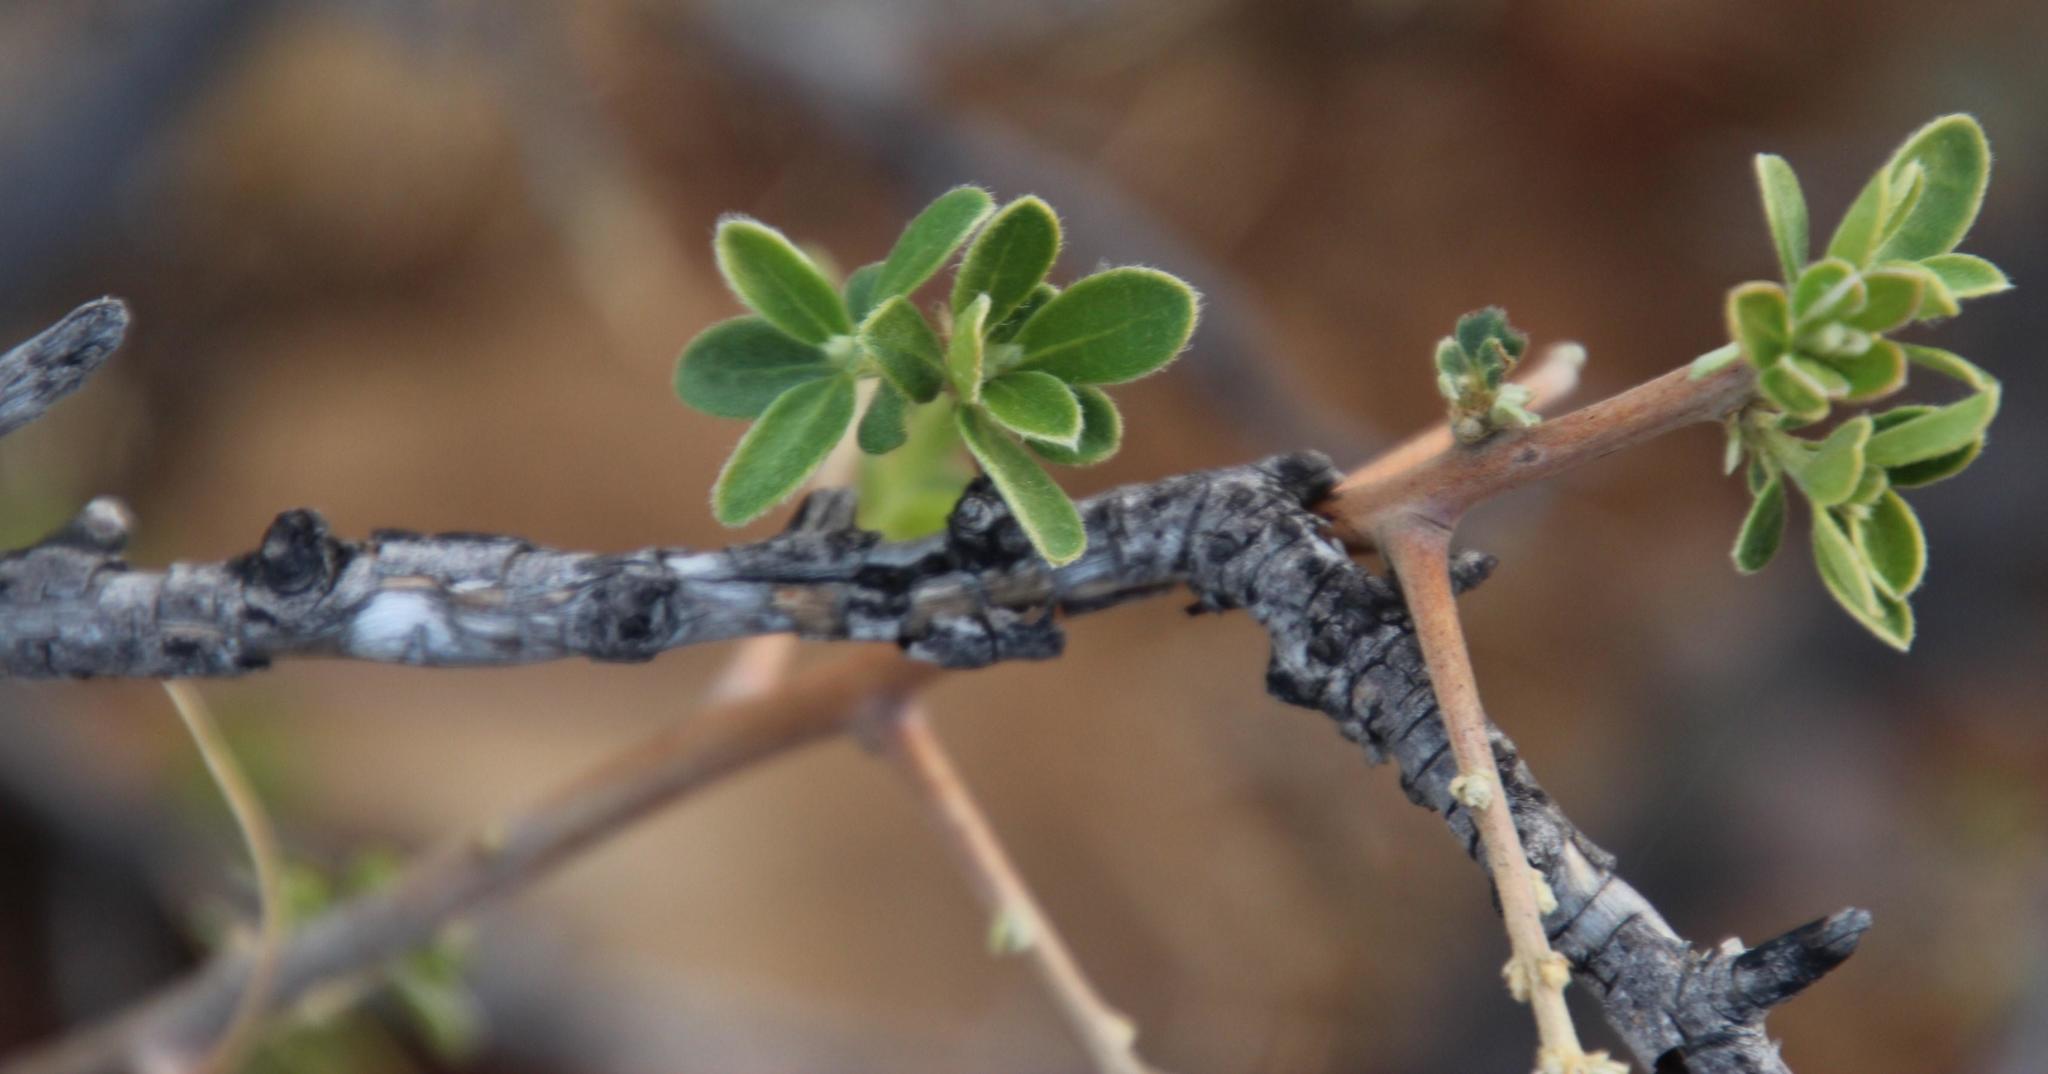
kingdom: Plantae
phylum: Tracheophyta
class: Magnoliopsida
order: Ericales
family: Ebenaceae
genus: Diospyros
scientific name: Diospyros lycioides
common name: Red star apple
